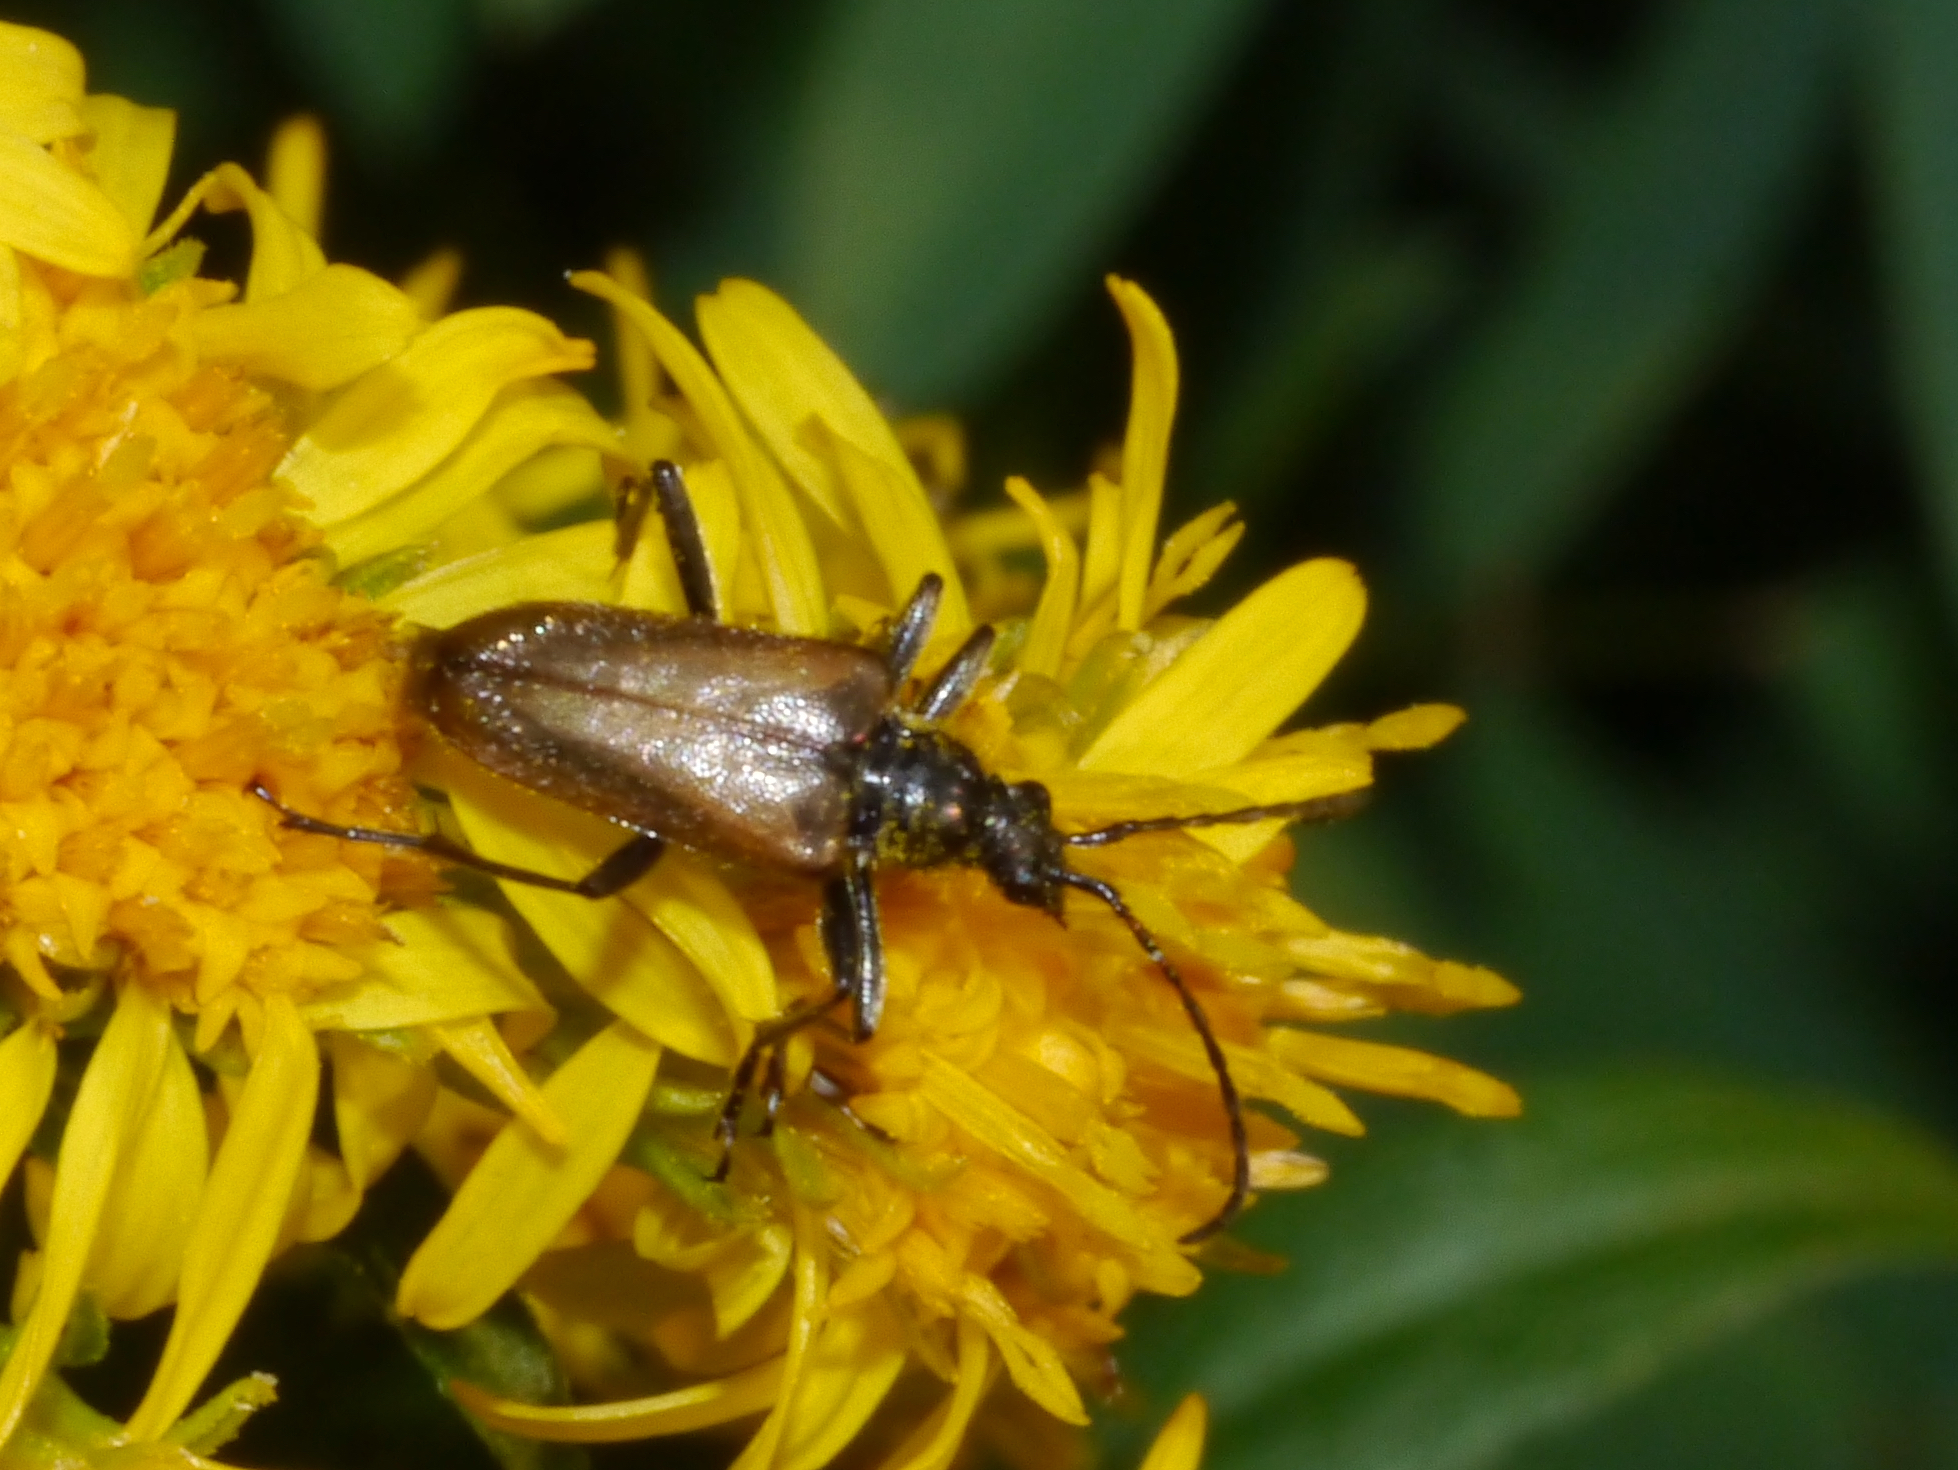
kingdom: Animalia
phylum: Arthropoda
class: Insecta
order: Coleoptera
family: Cerambycidae
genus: Gnathacmaeops
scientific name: Gnathacmaeops pratensis
